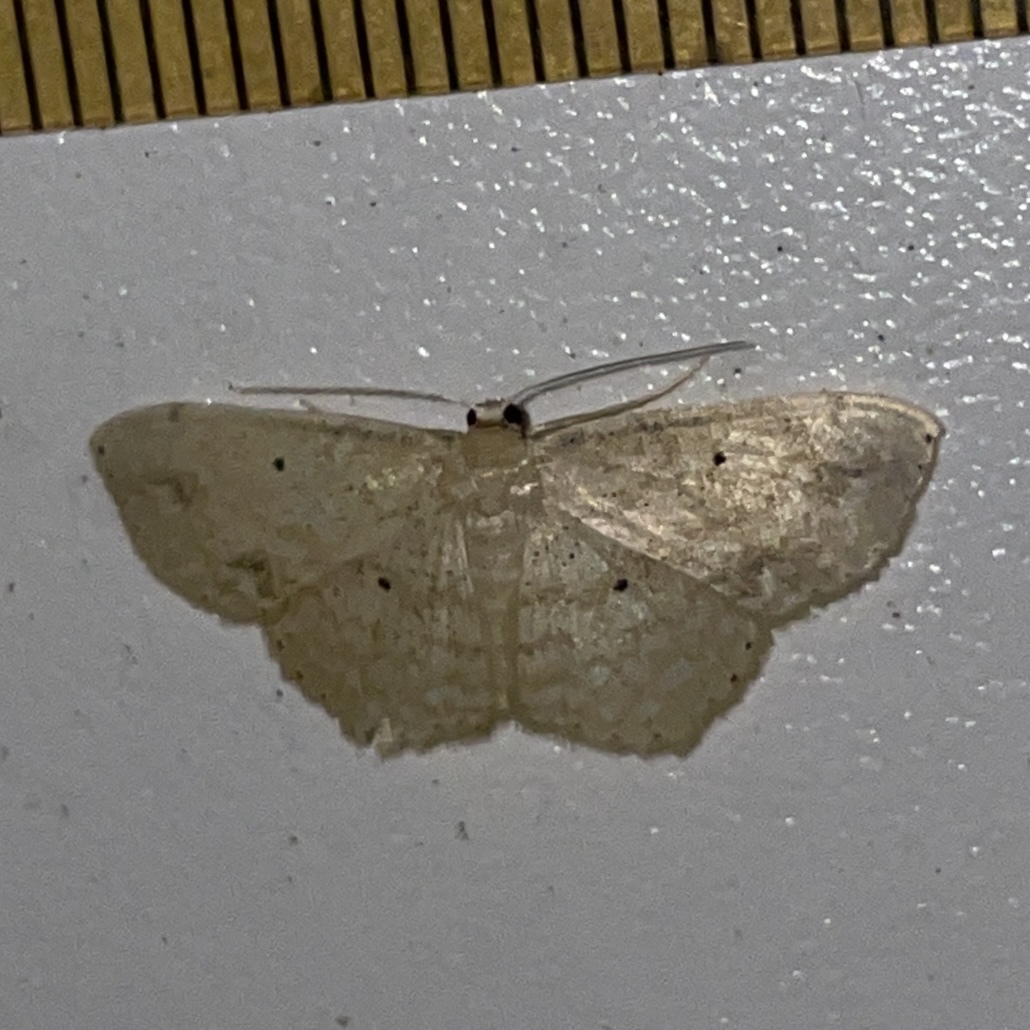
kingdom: Animalia
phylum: Arthropoda
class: Insecta
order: Lepidoptera
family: Geometridae
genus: Scopula
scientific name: Scopula apparitaria
